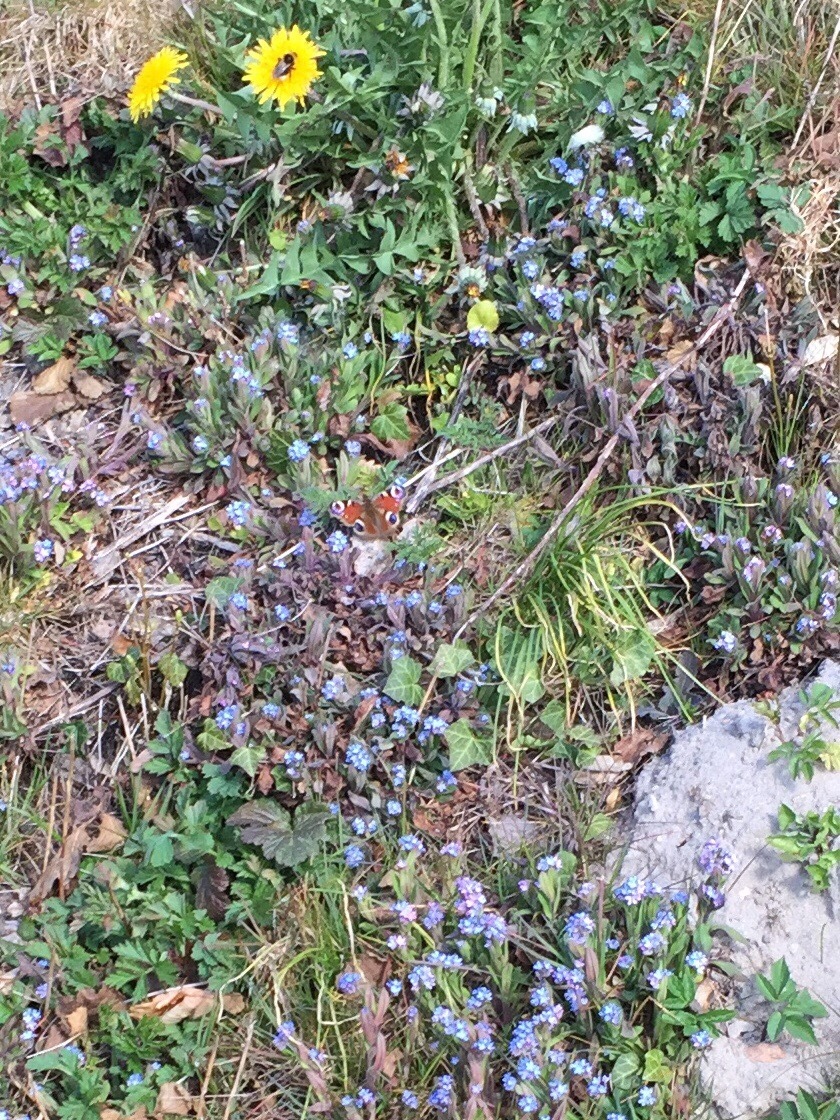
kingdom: Animalia
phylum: Arthropoda
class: Insecta
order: Lepidoptera
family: Nymphalidae
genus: Aglais
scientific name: Aglais io
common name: Peacock
